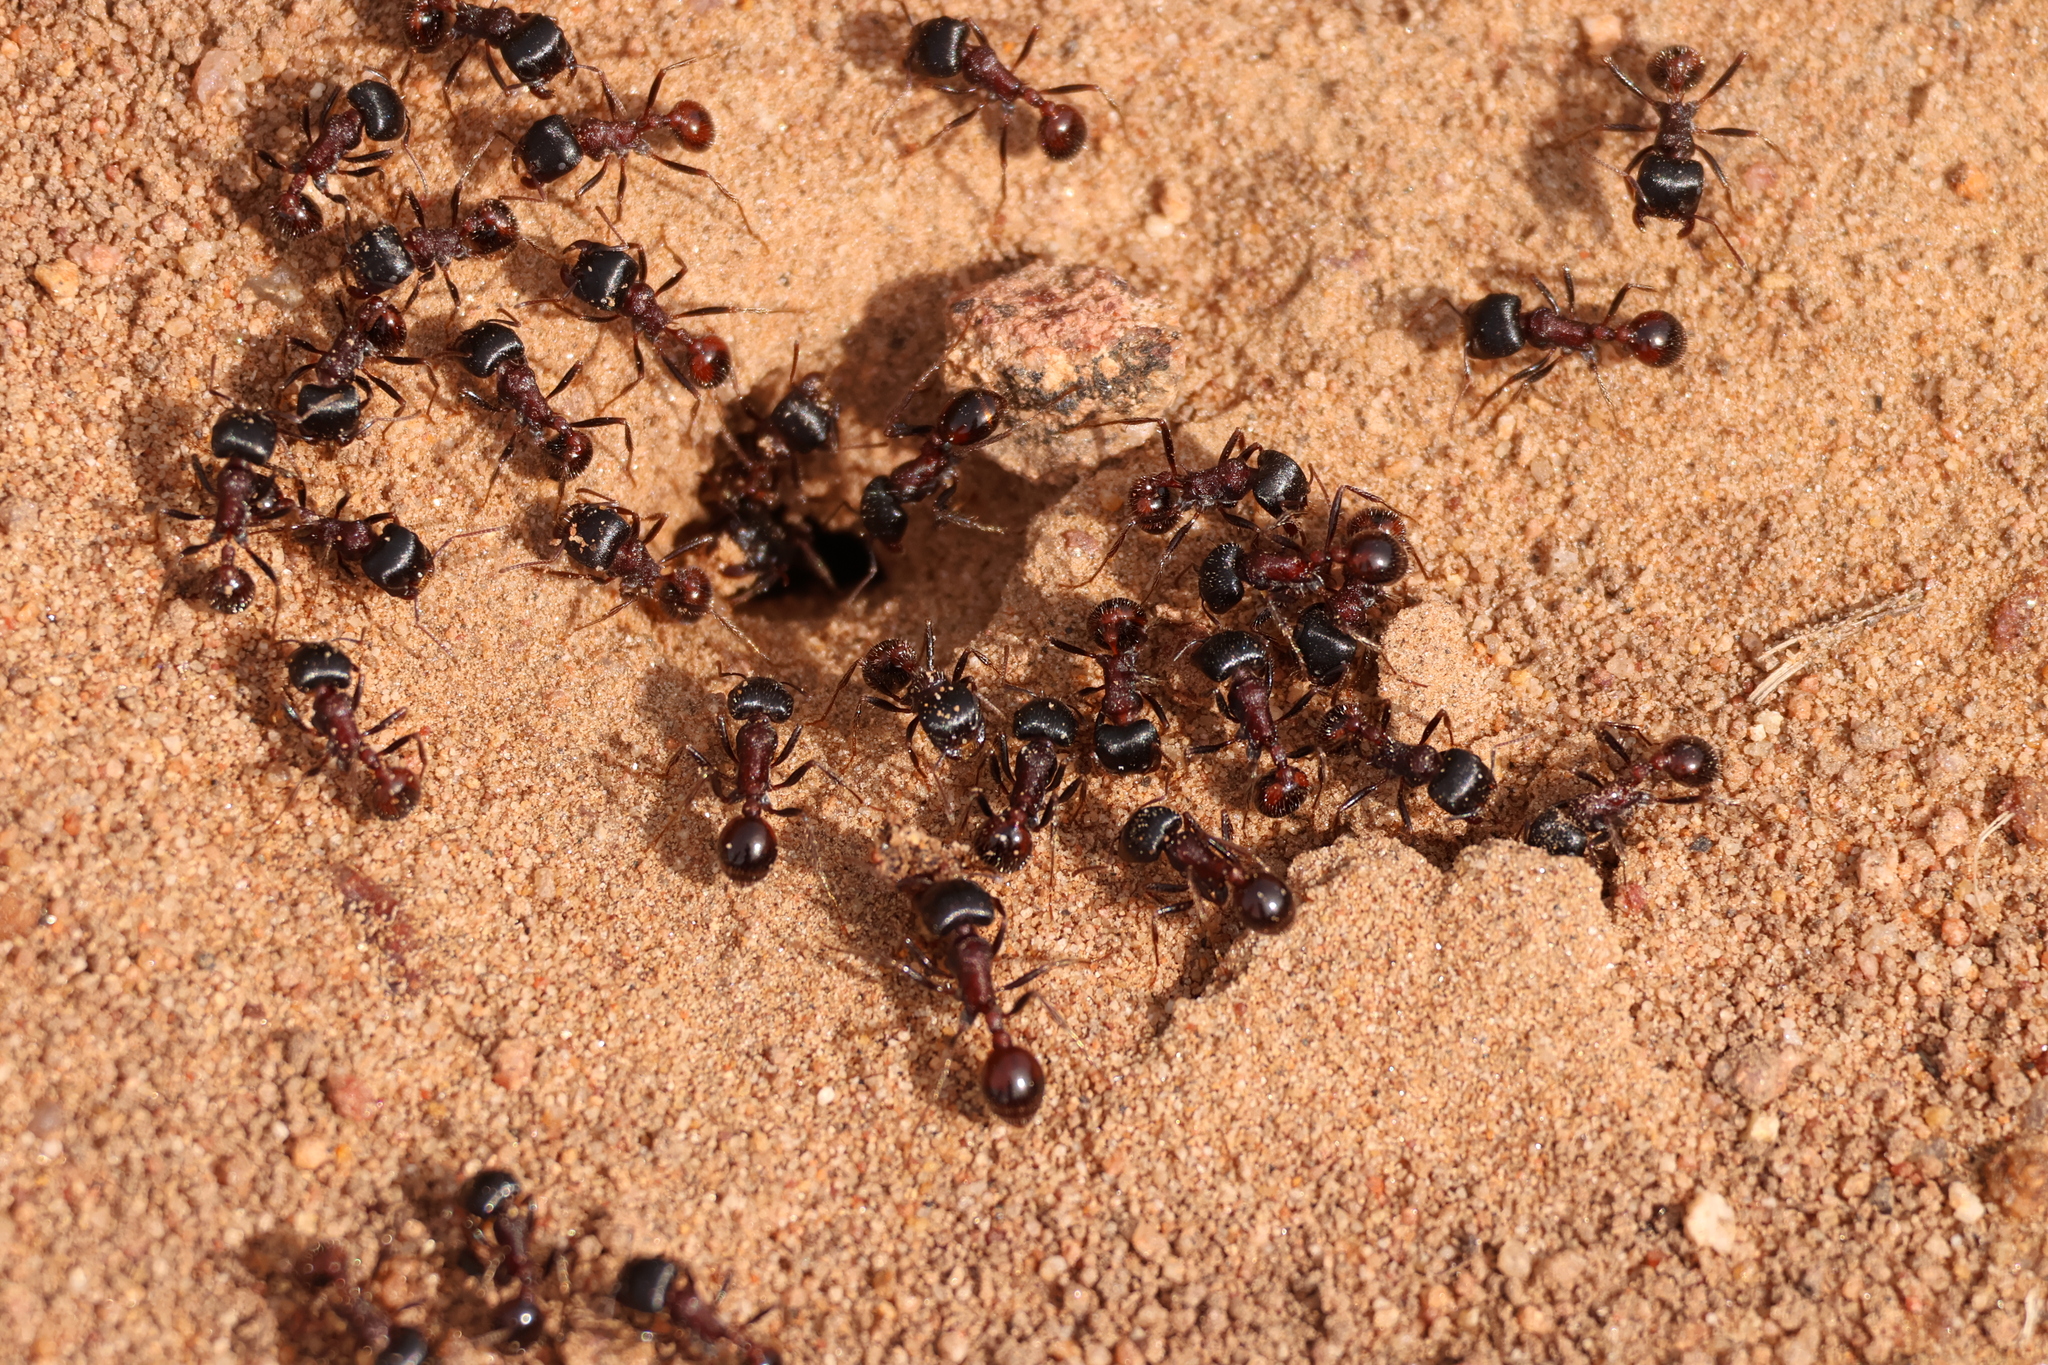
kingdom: Animalia
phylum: Arthropoda
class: Insecta
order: Hymenoptera
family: Formicidae
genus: Pogonomyrmex
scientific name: Pogonomyrmex rugosus
